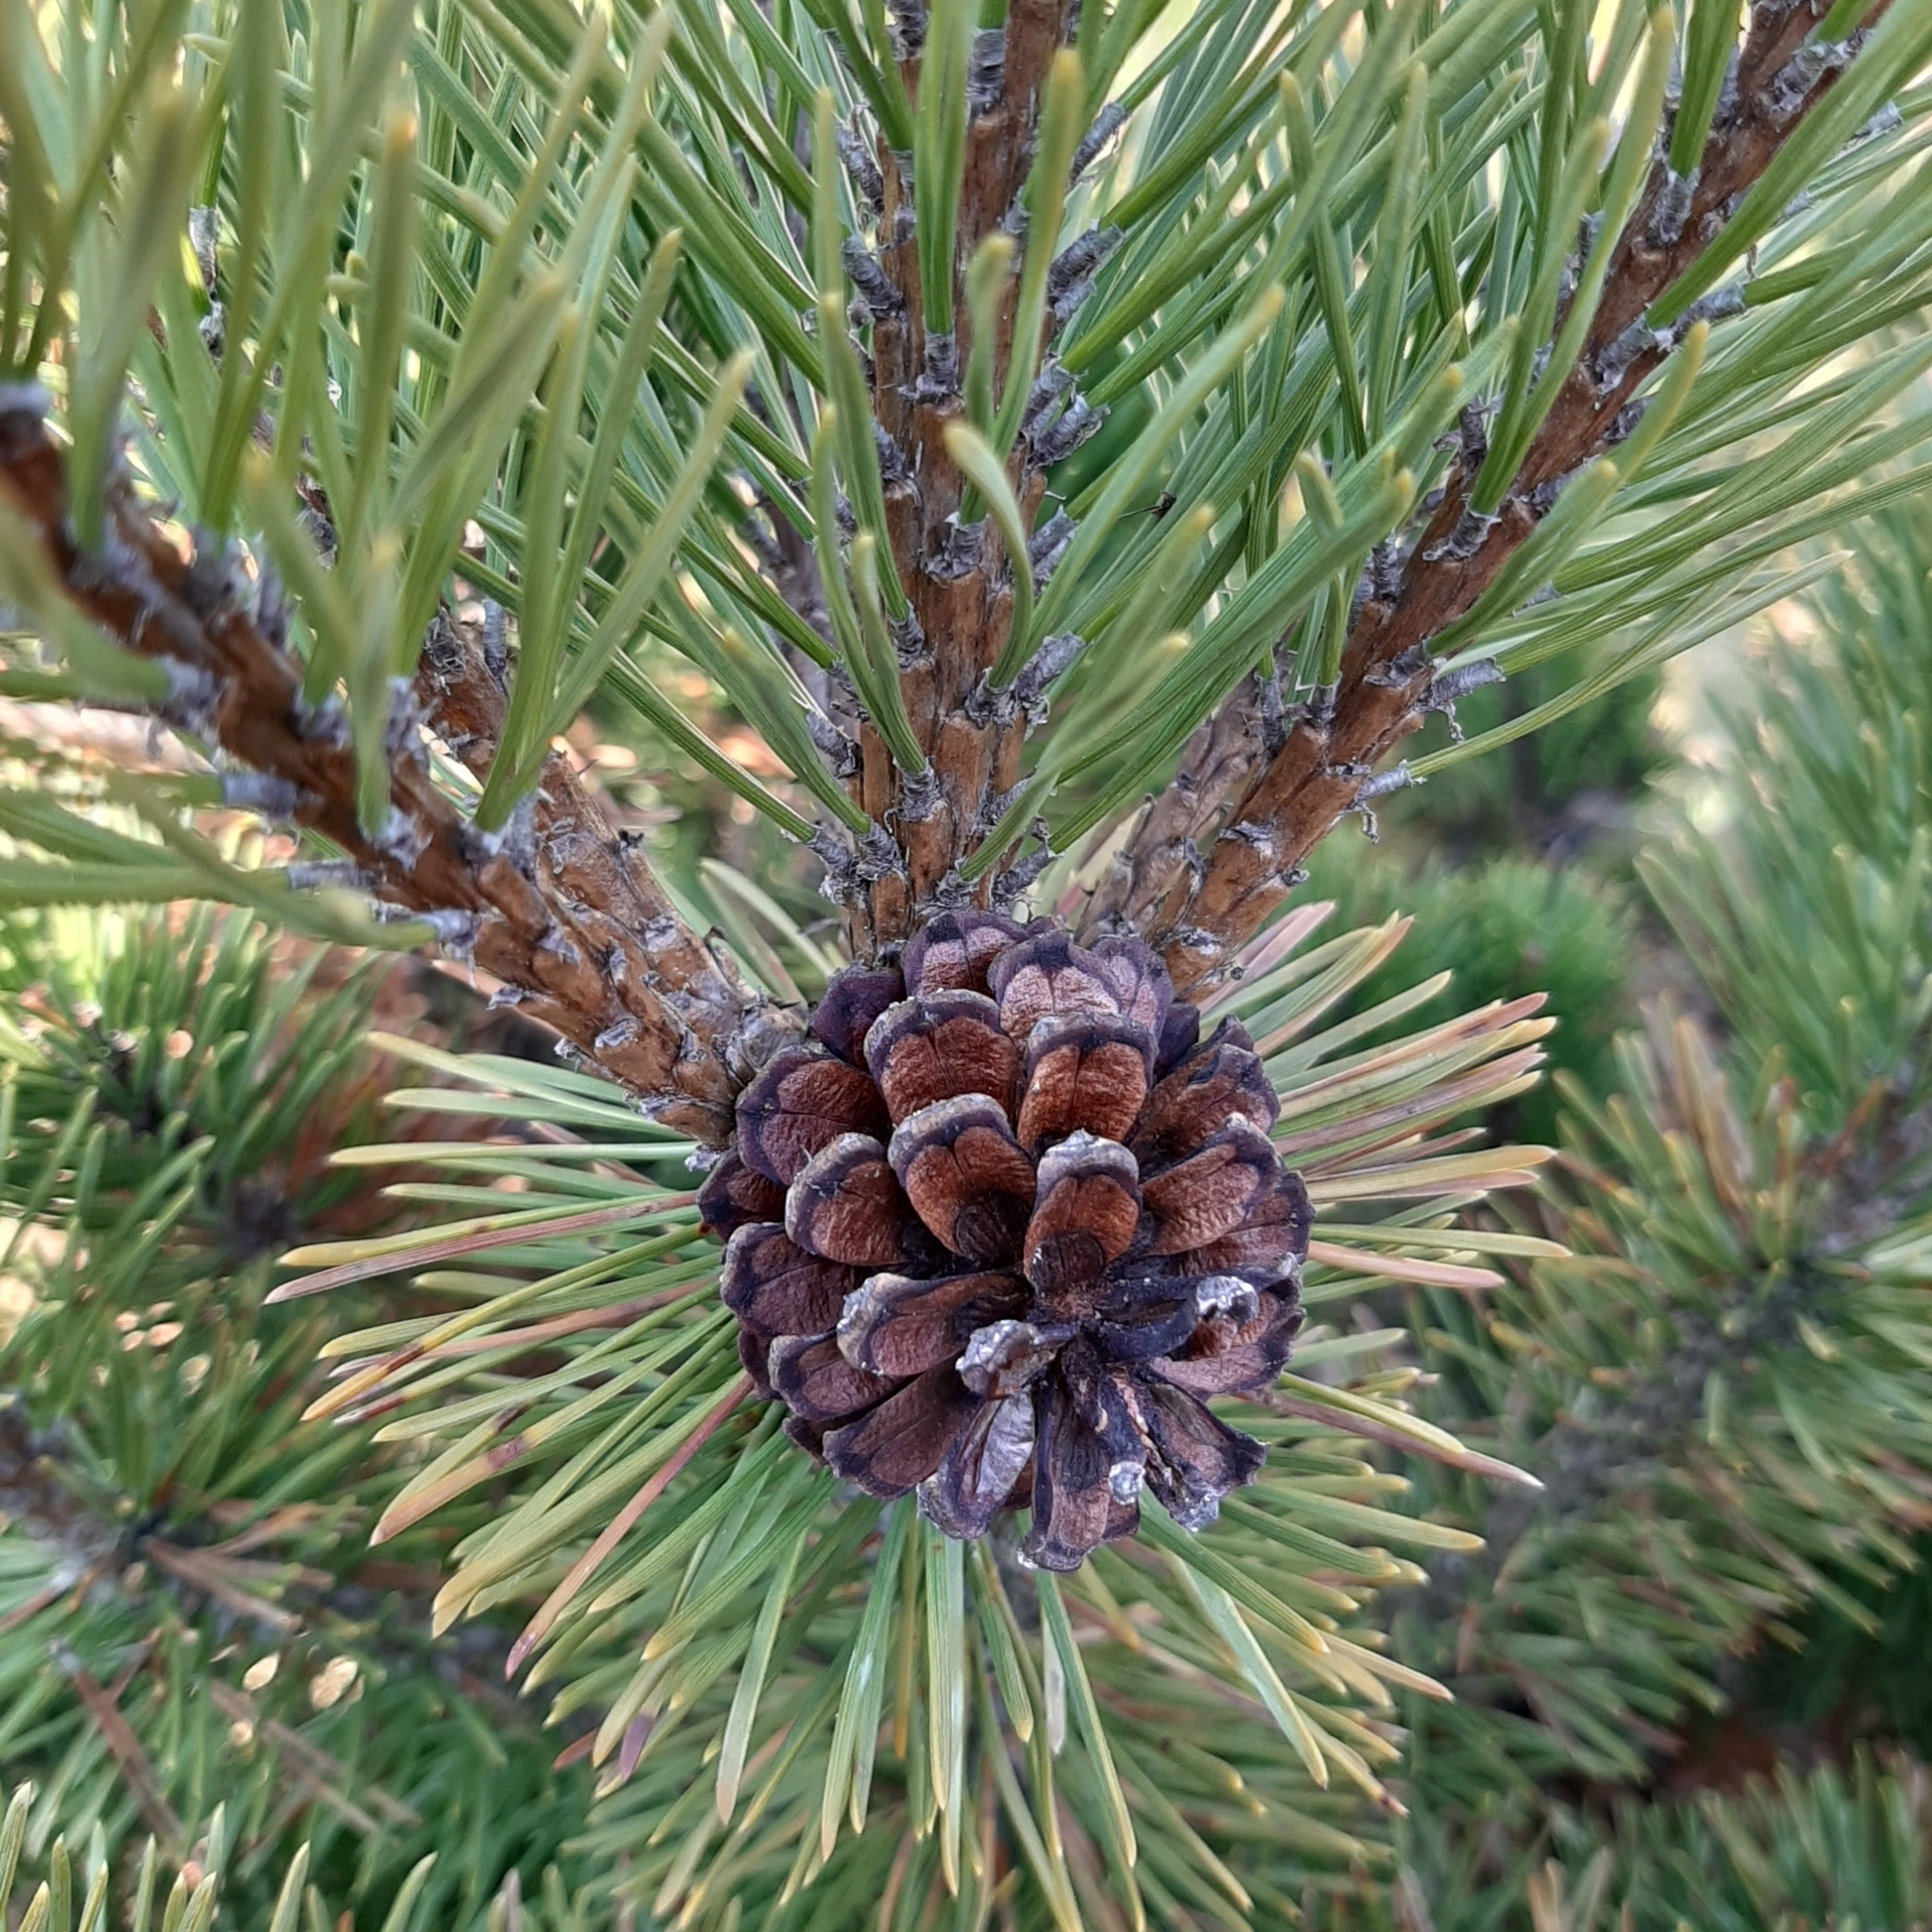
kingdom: Plantae
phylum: Tracheophyta
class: Pinopsida
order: Pinales
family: Pinaceae
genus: Pinus
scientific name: Pinus mugo
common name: Mugo pine
